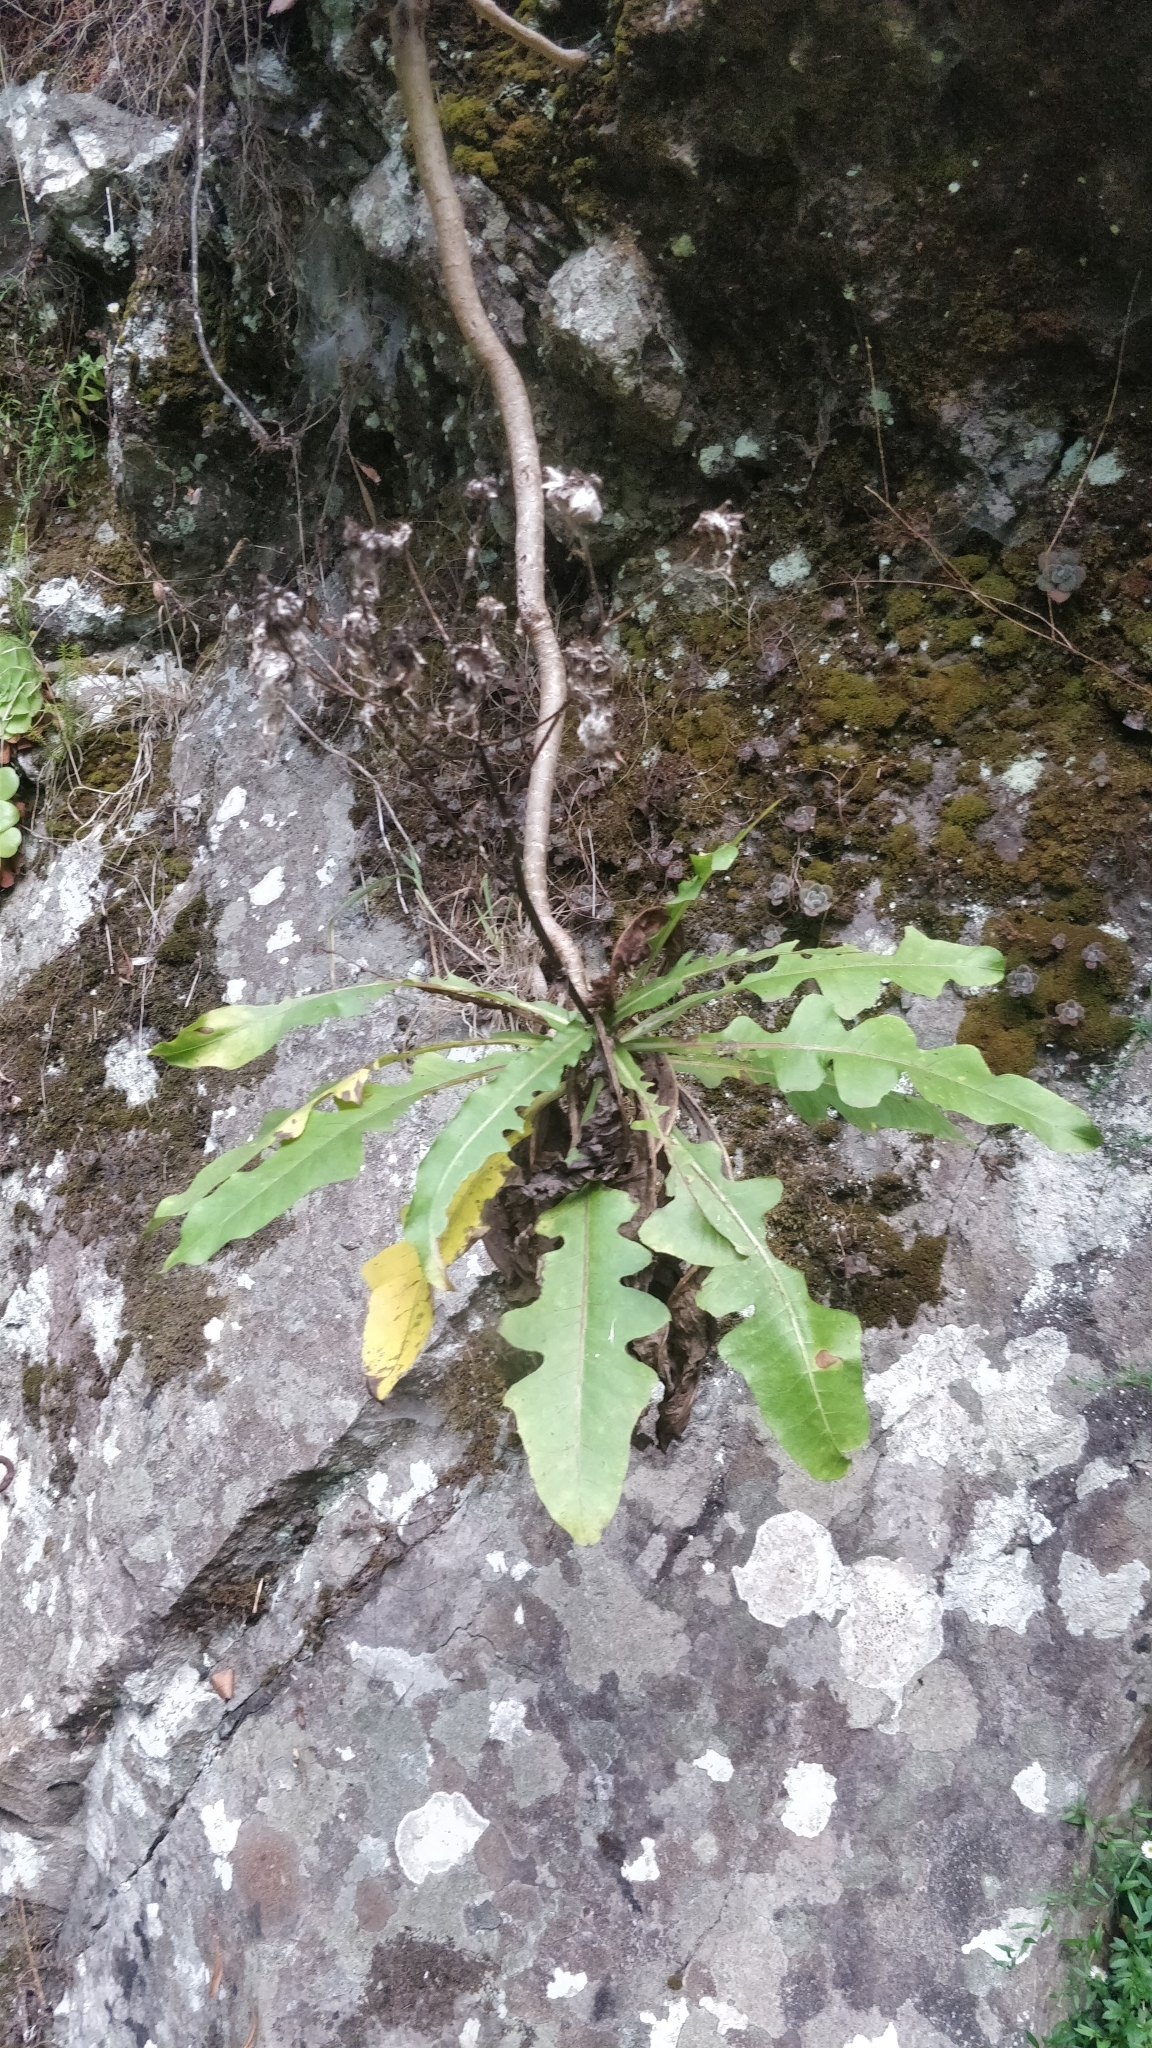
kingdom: Plantae
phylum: Tracheophyta
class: Magnoliopsida
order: Asterales
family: Asteraceae
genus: Sonchus
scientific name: Sonchus fruticosus
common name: Shrubby sow-thistle
